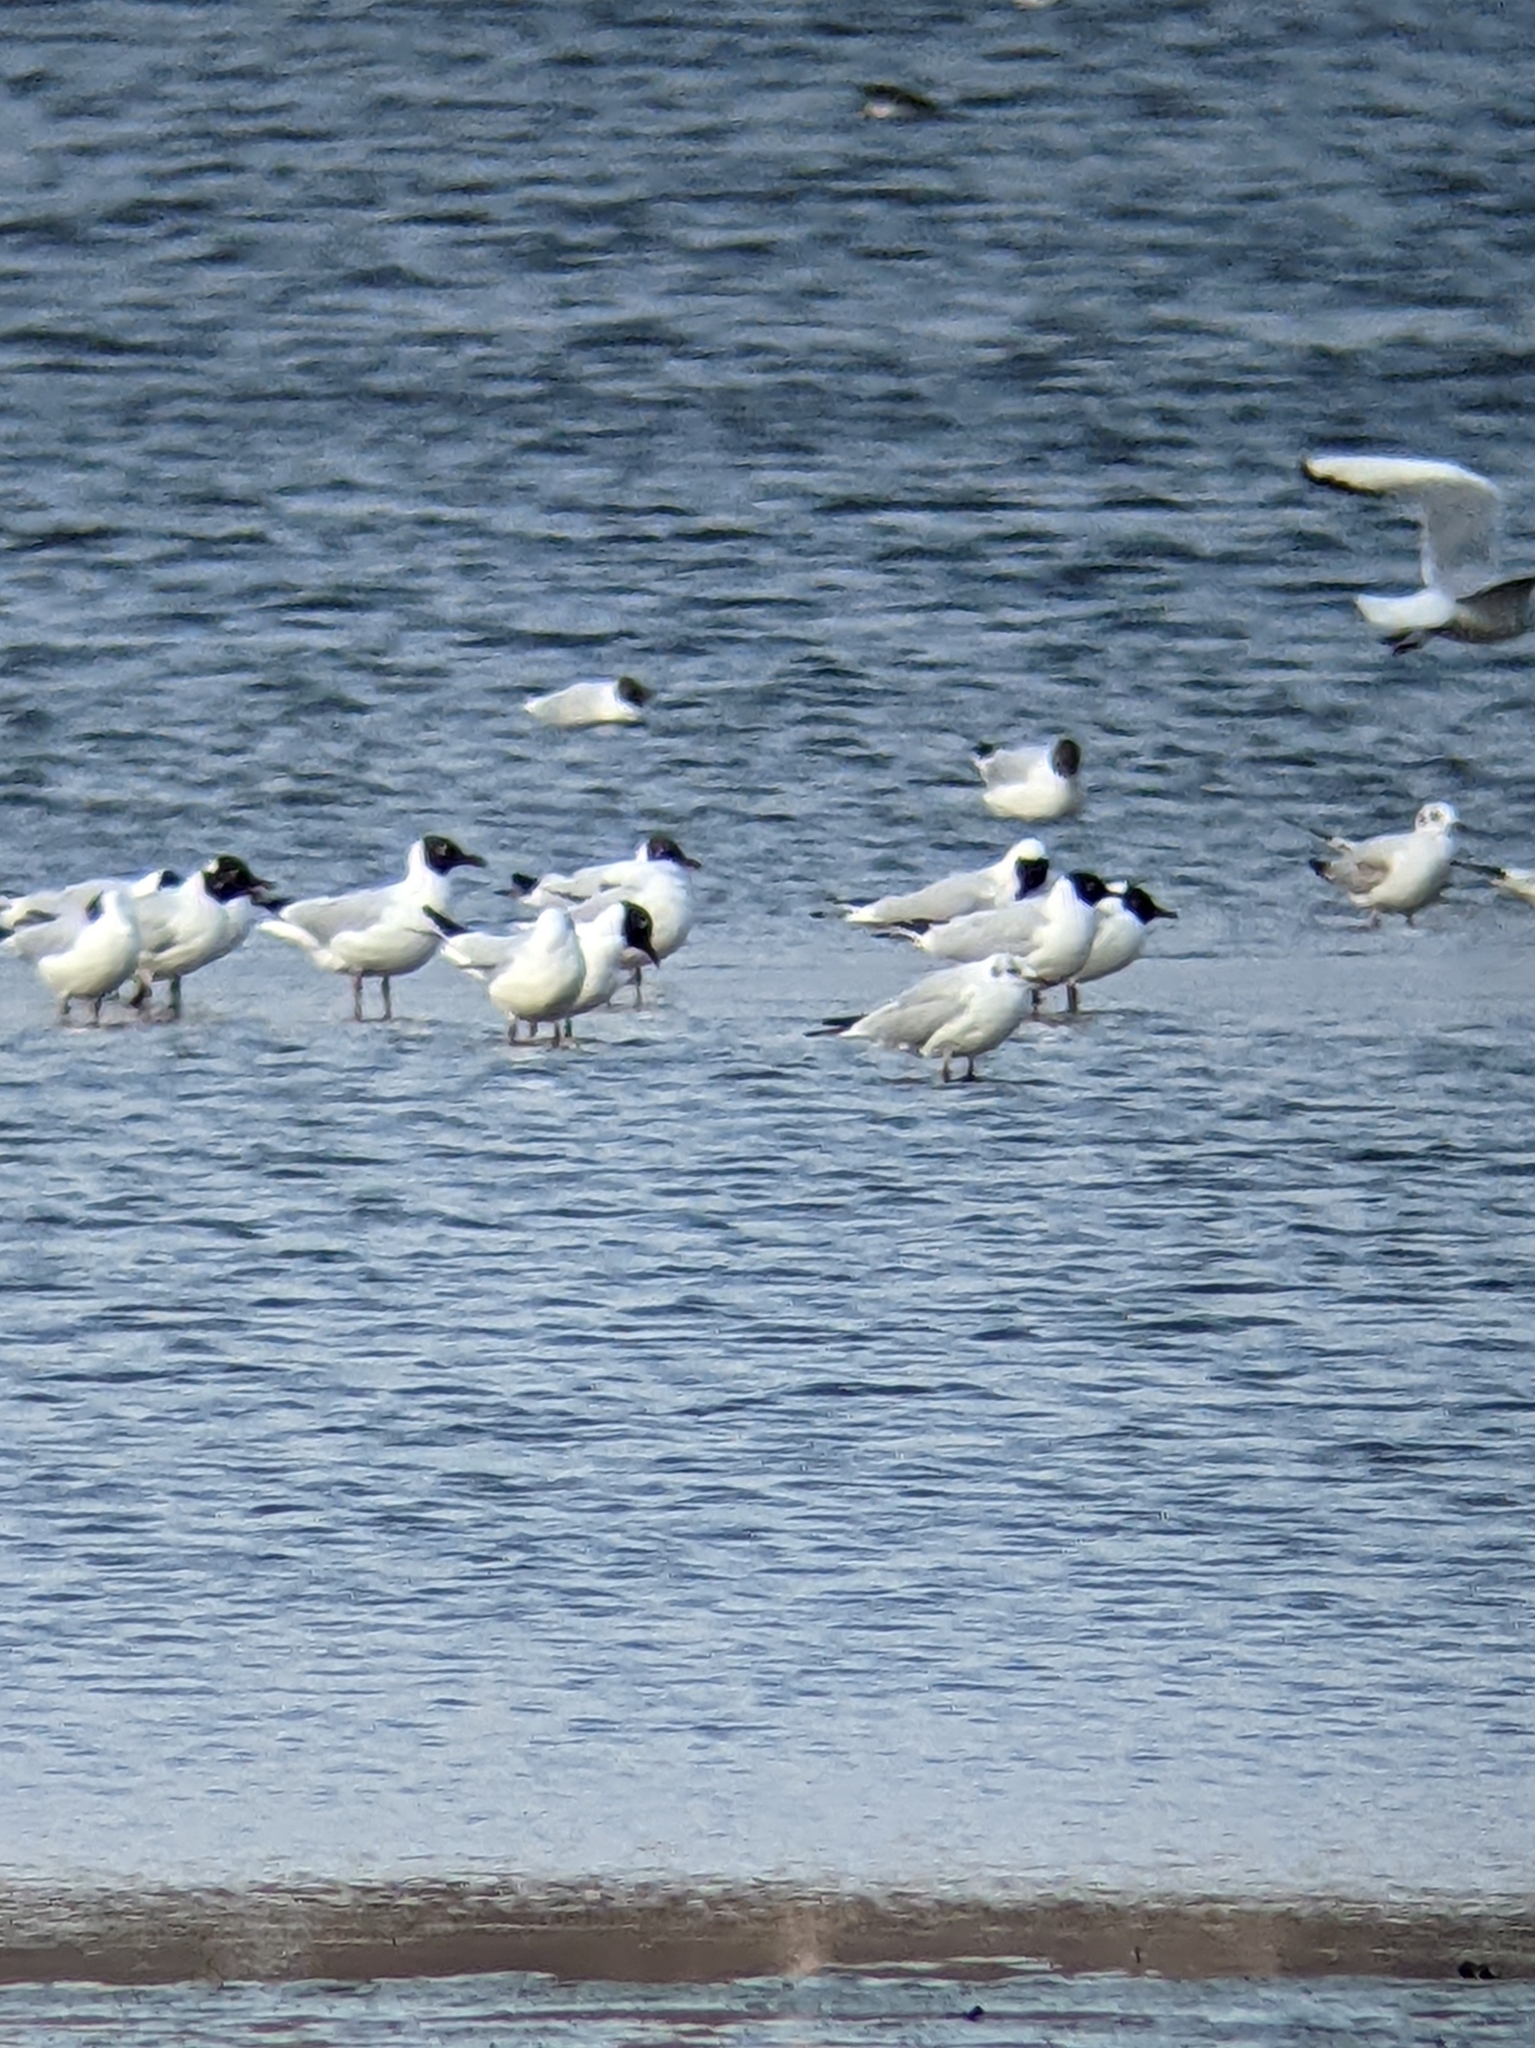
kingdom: Animalia
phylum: Chordata
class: Aves
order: Charadriiformes
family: Laridae
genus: Chroicocephalus
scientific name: Chroicocephalus ridibundus
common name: Black-headed gull
